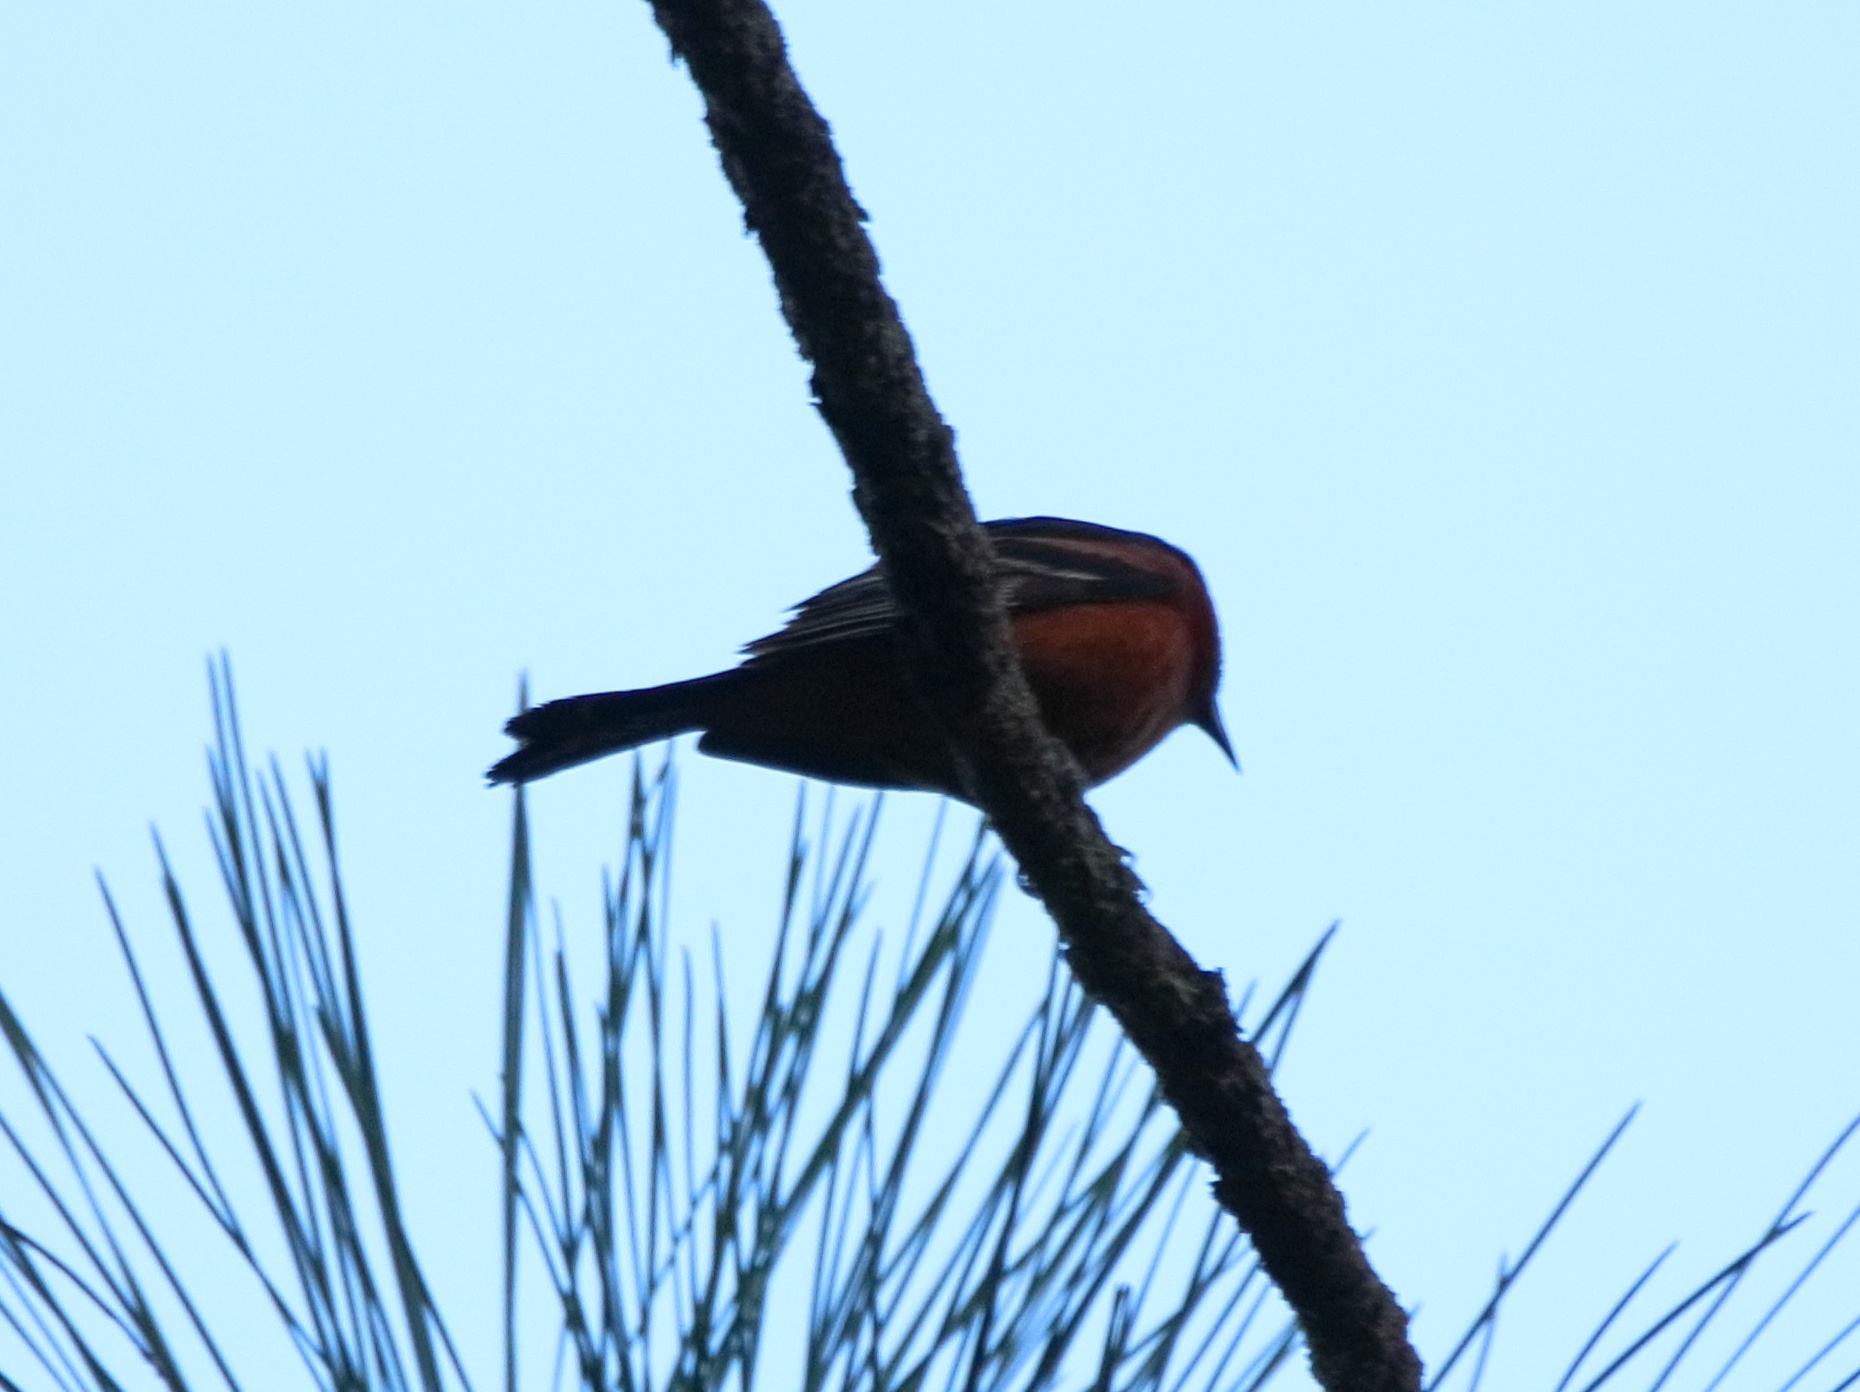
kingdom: Animalia
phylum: Chordata
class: Aves
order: Passeriformes
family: Icteridae
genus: Icterus
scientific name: Icterus spurius
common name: Orchard oriole
